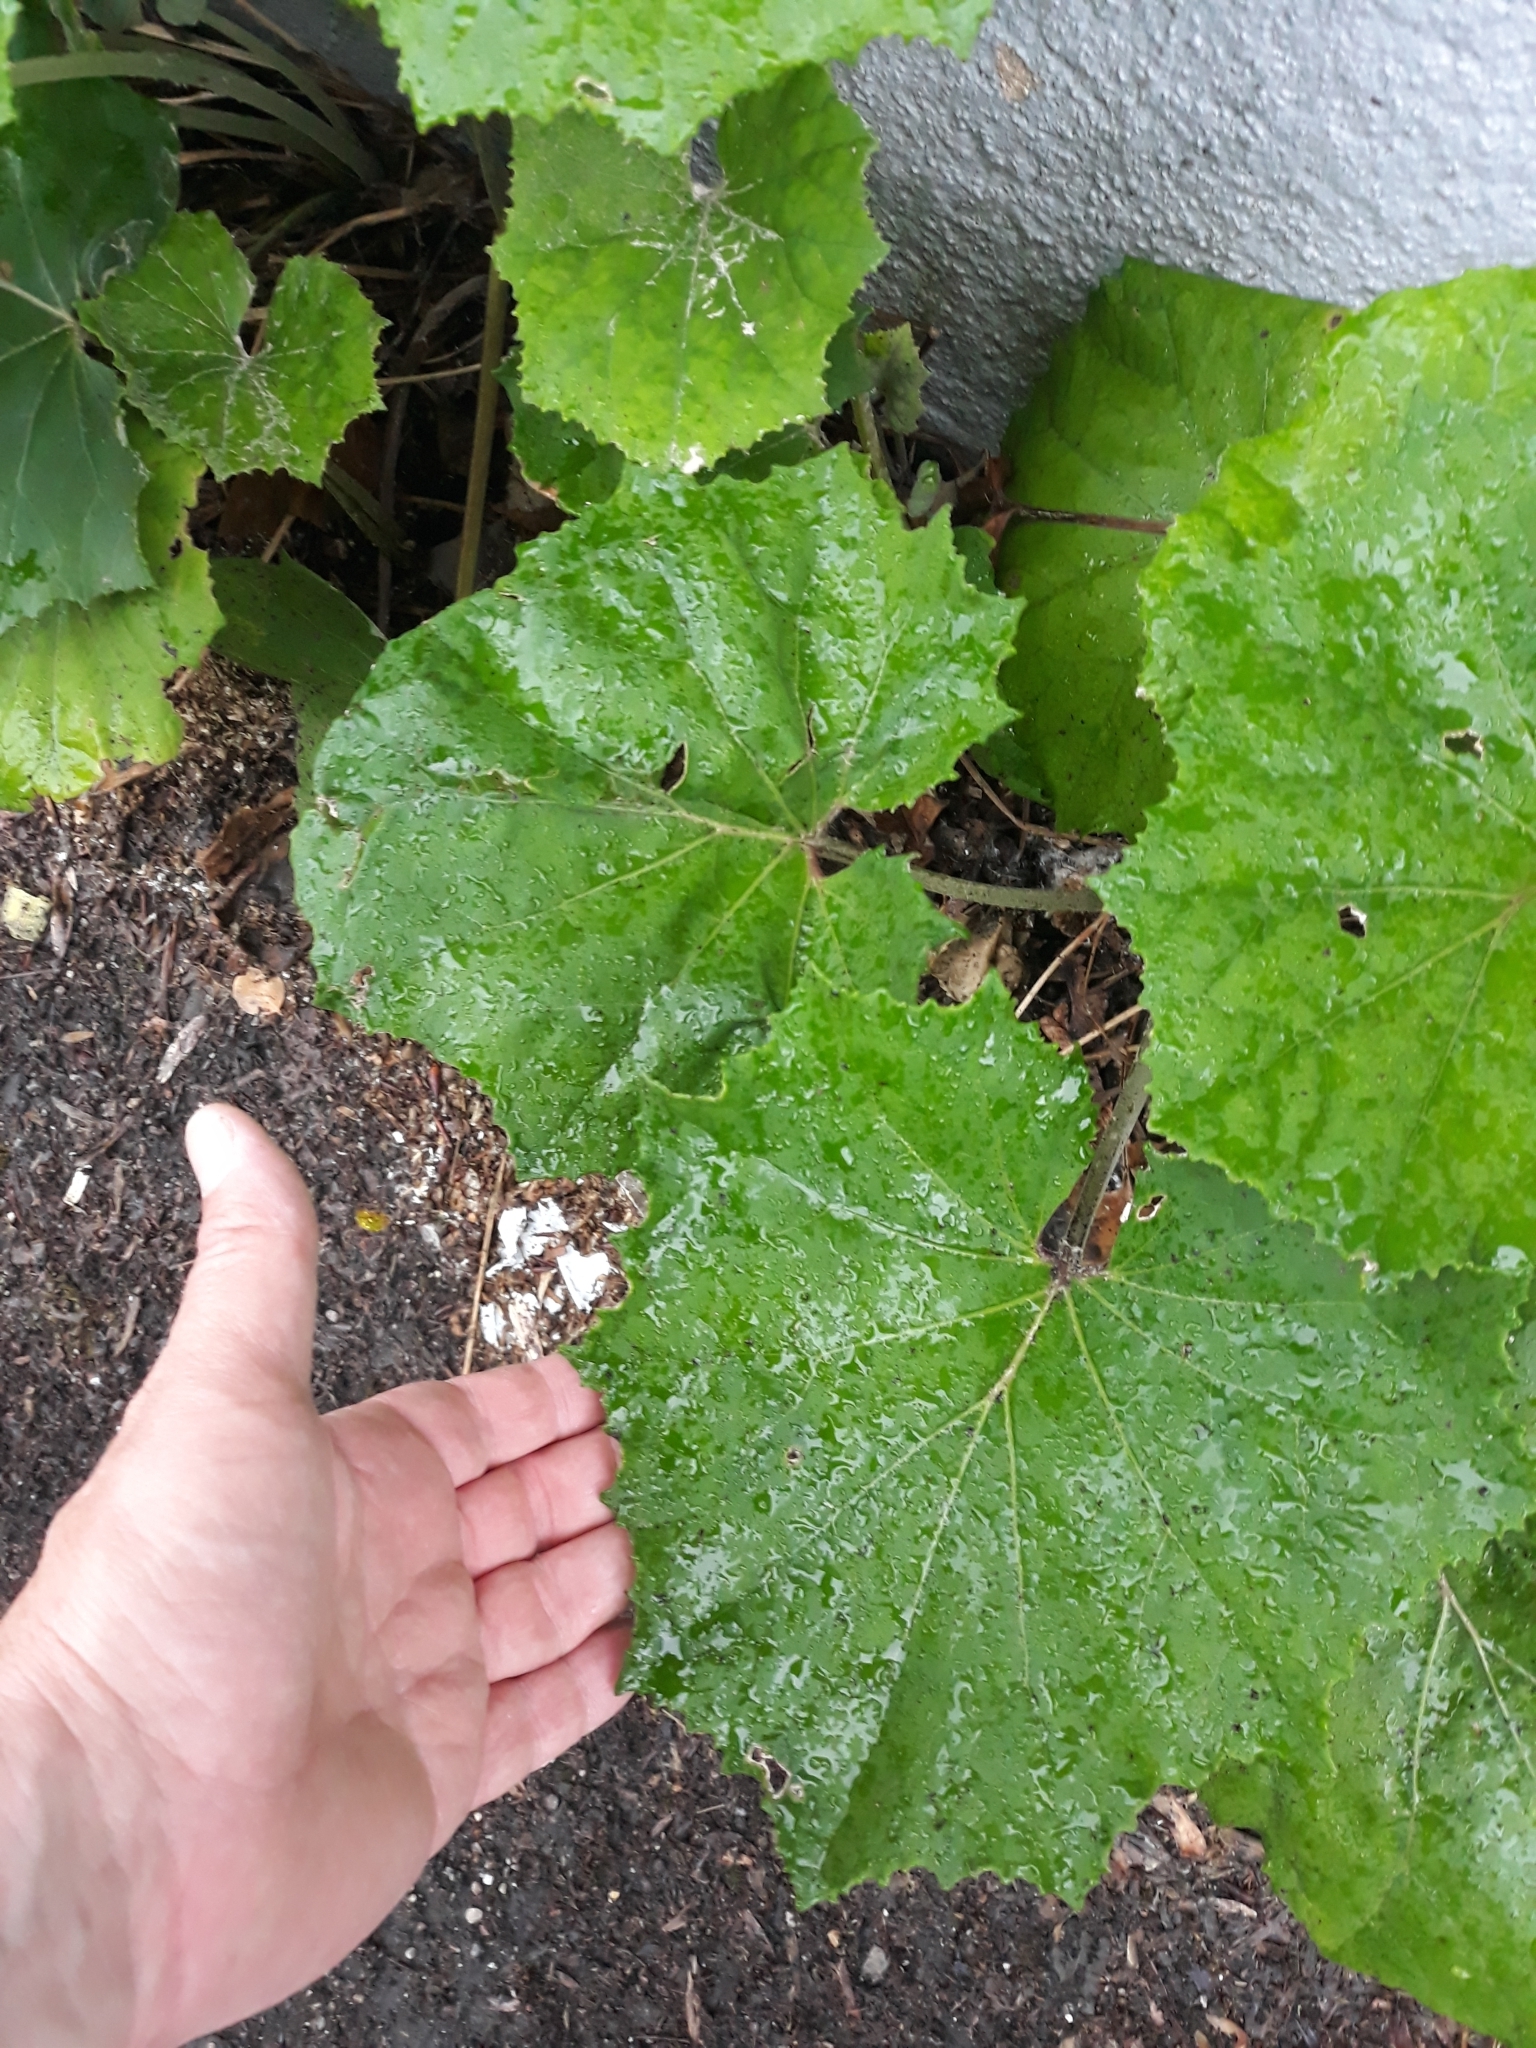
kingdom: Plantae
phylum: Tracheophyta
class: Magnoliopsida
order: Asterales
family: Asteraceae
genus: Tussilago
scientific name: Tussilago farfara
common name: Coltsfoot
